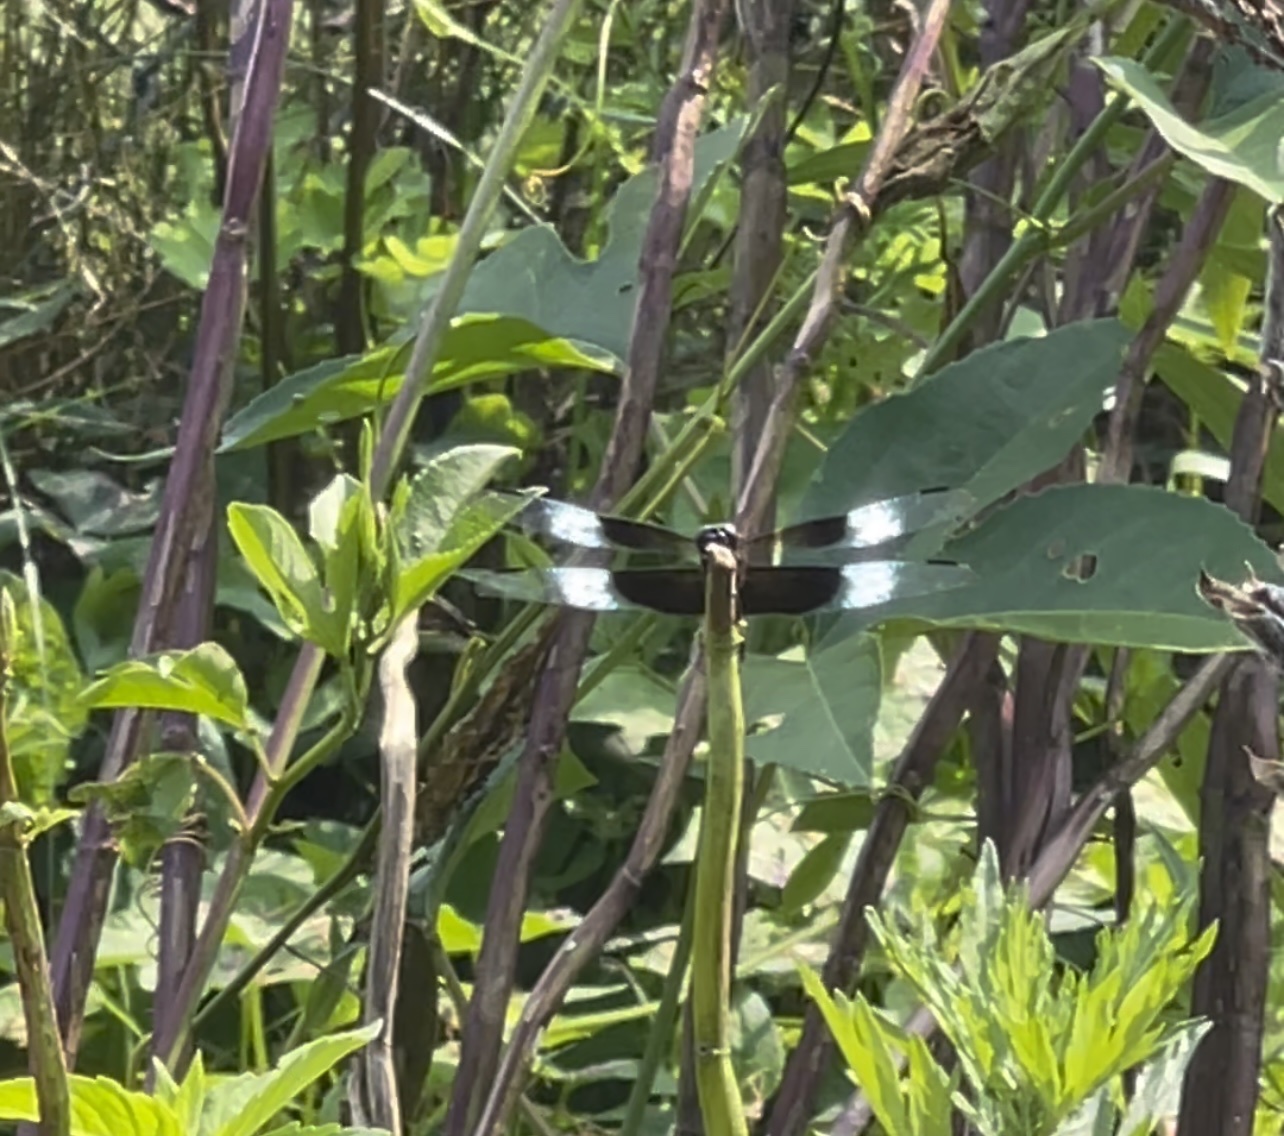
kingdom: Animalia
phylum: Arthropoda
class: Insecta
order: Odonata
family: Libellulidae
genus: Libellula
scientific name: Libellula luctuosa
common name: Widow skimmer
